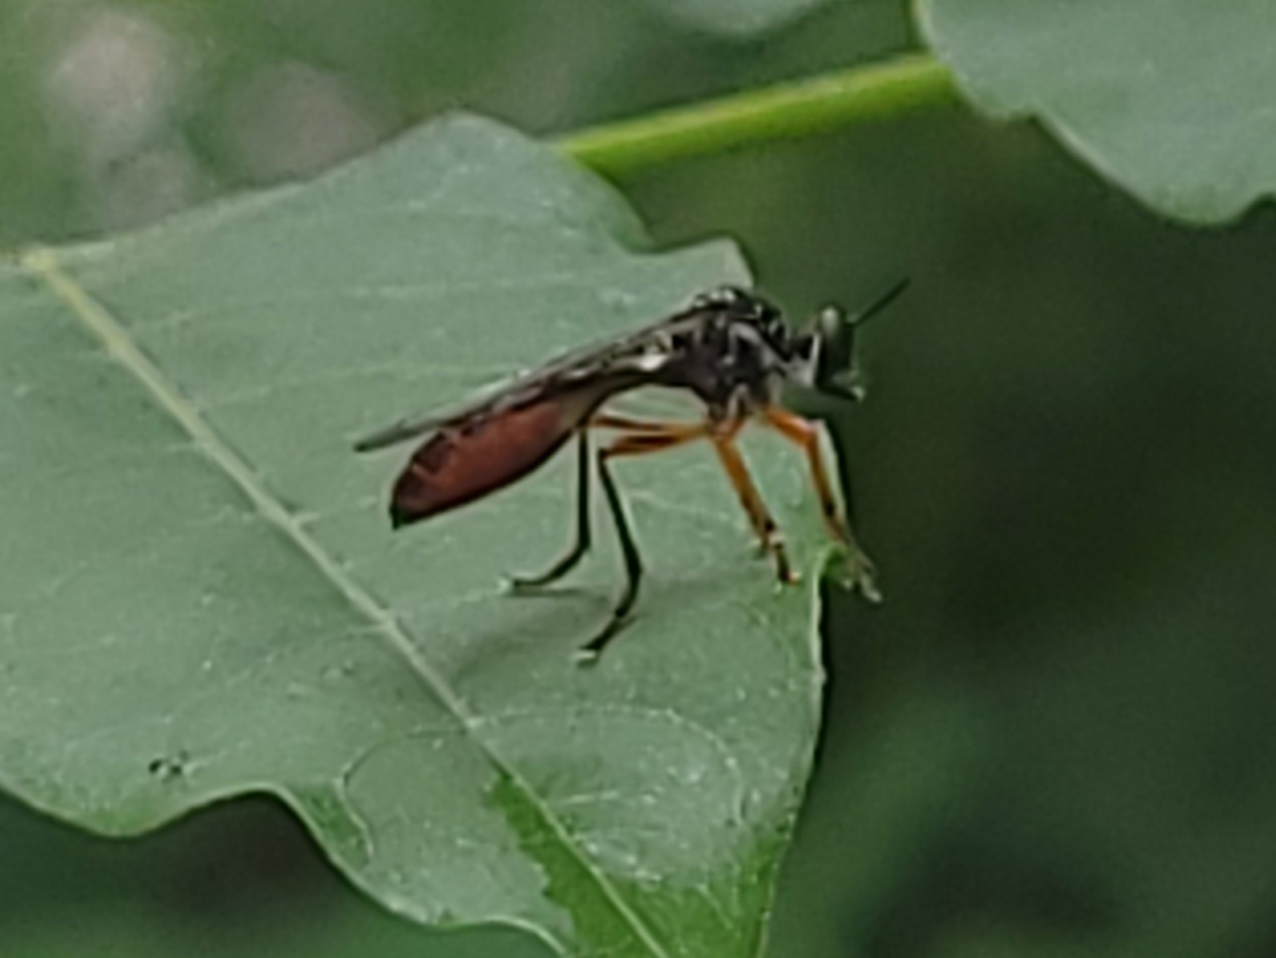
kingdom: Animalia
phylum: Arthropoda
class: Insecta
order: Diptera
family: Asilidae
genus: Dioctria
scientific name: Dioctria hyalipennis
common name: Stripe-legged robberfly
